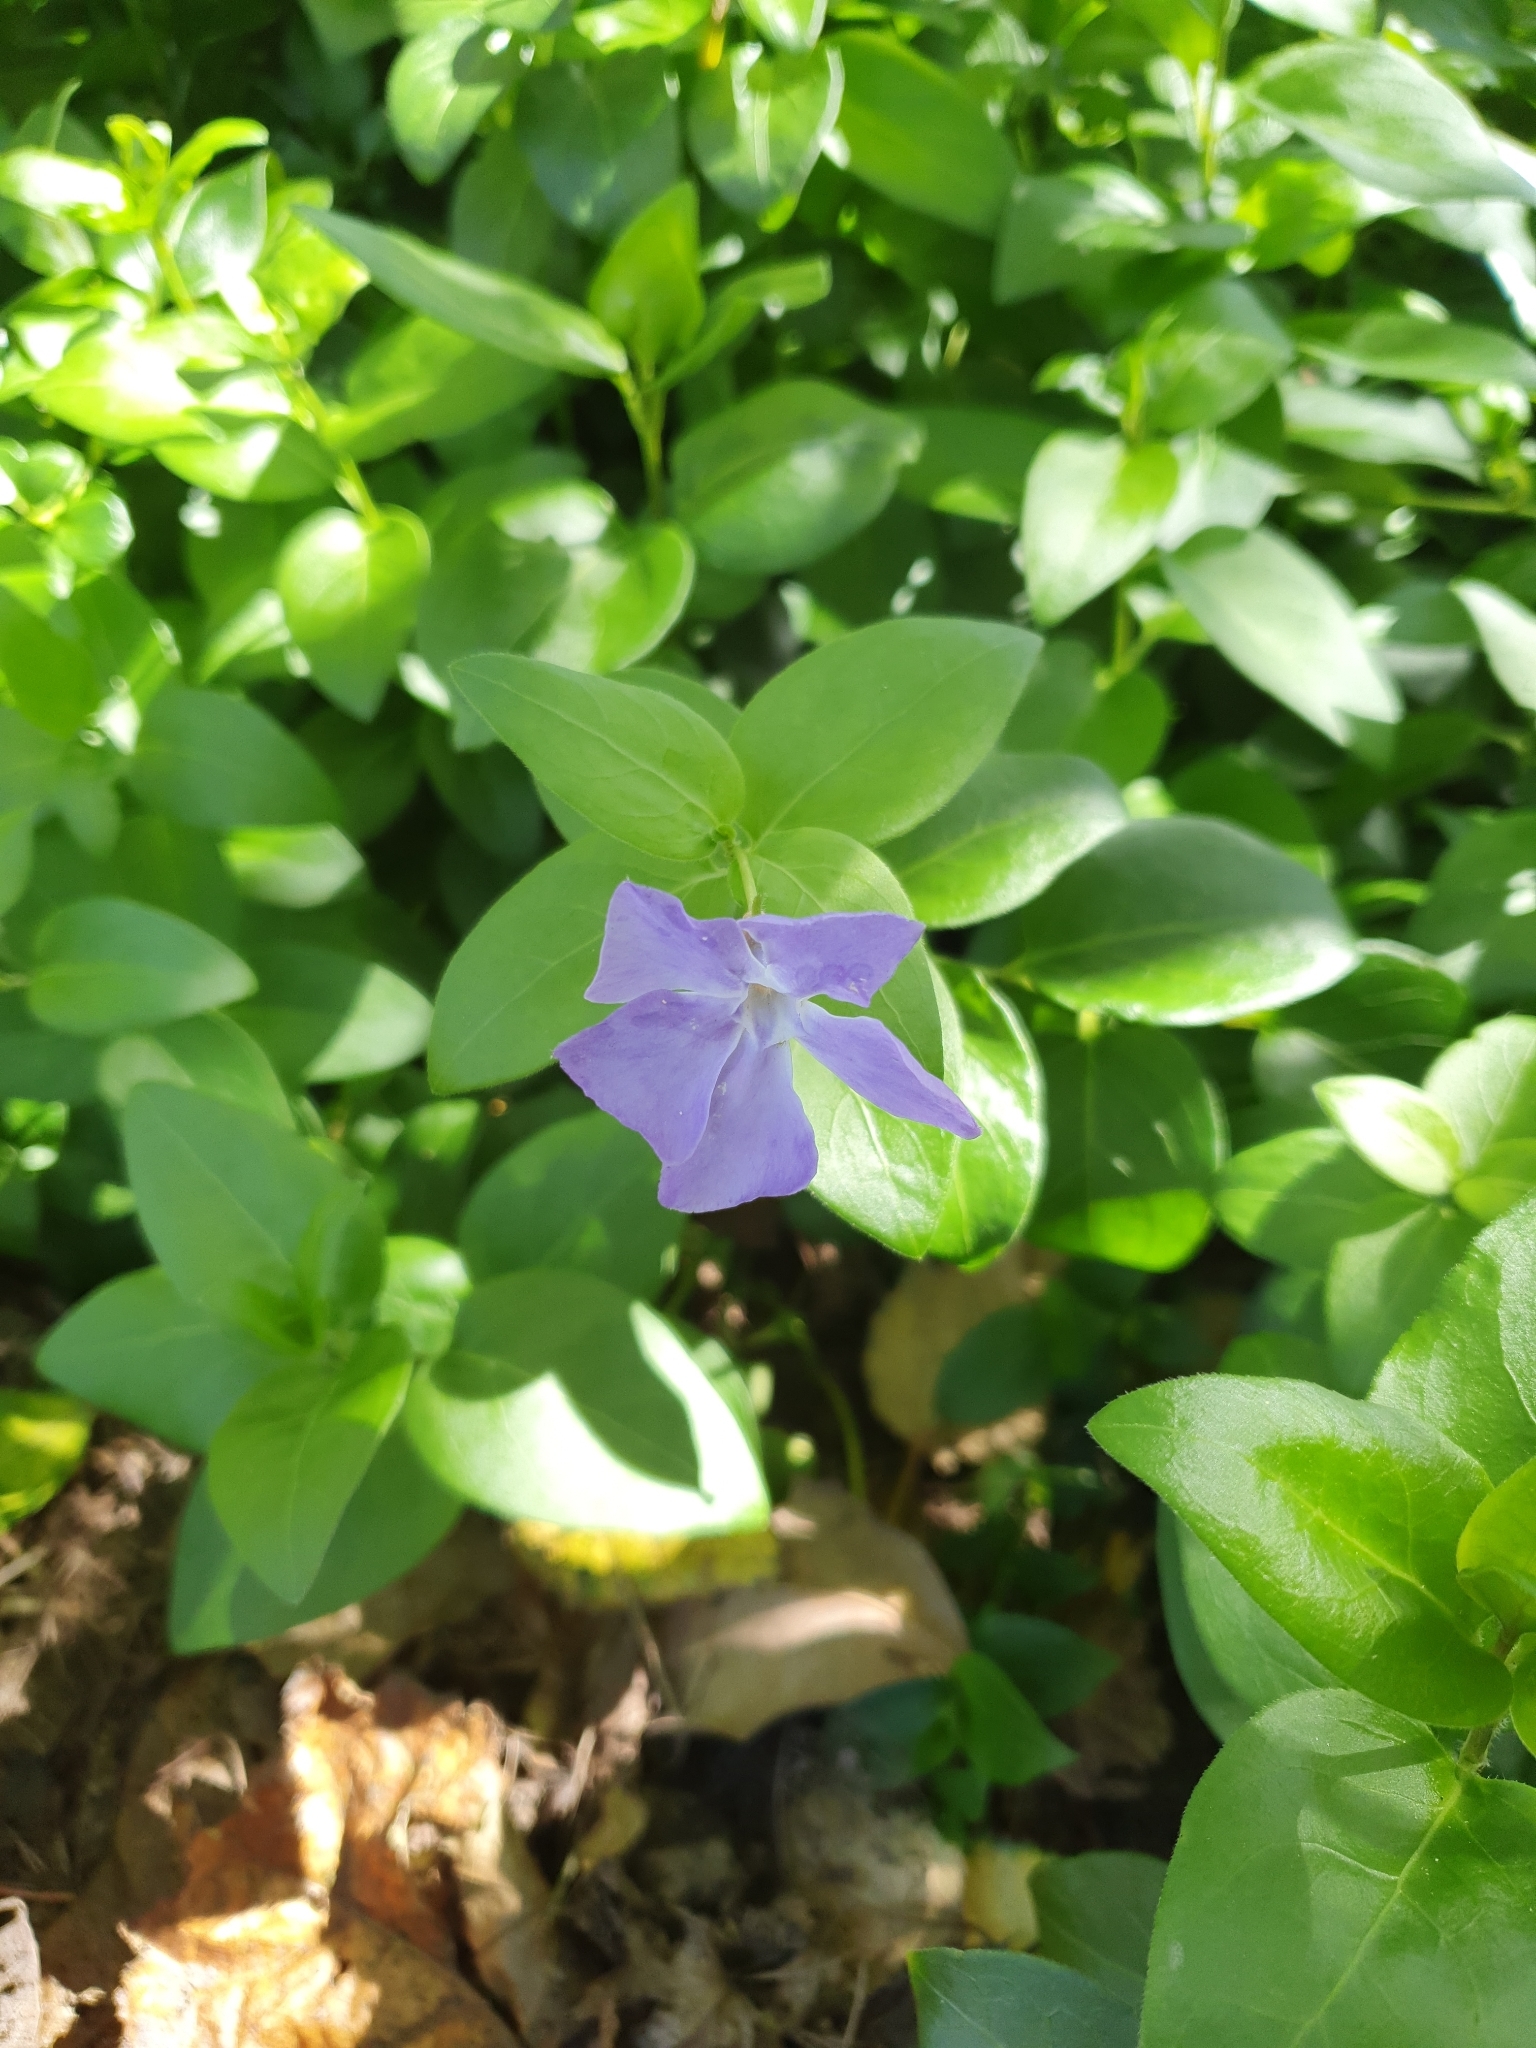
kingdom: Plantae
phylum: Tracheophyta
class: Magnoliopsida
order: Gentianales
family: Apocynaceae
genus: Vinca
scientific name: Vinca major
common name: Greater periwinkle
